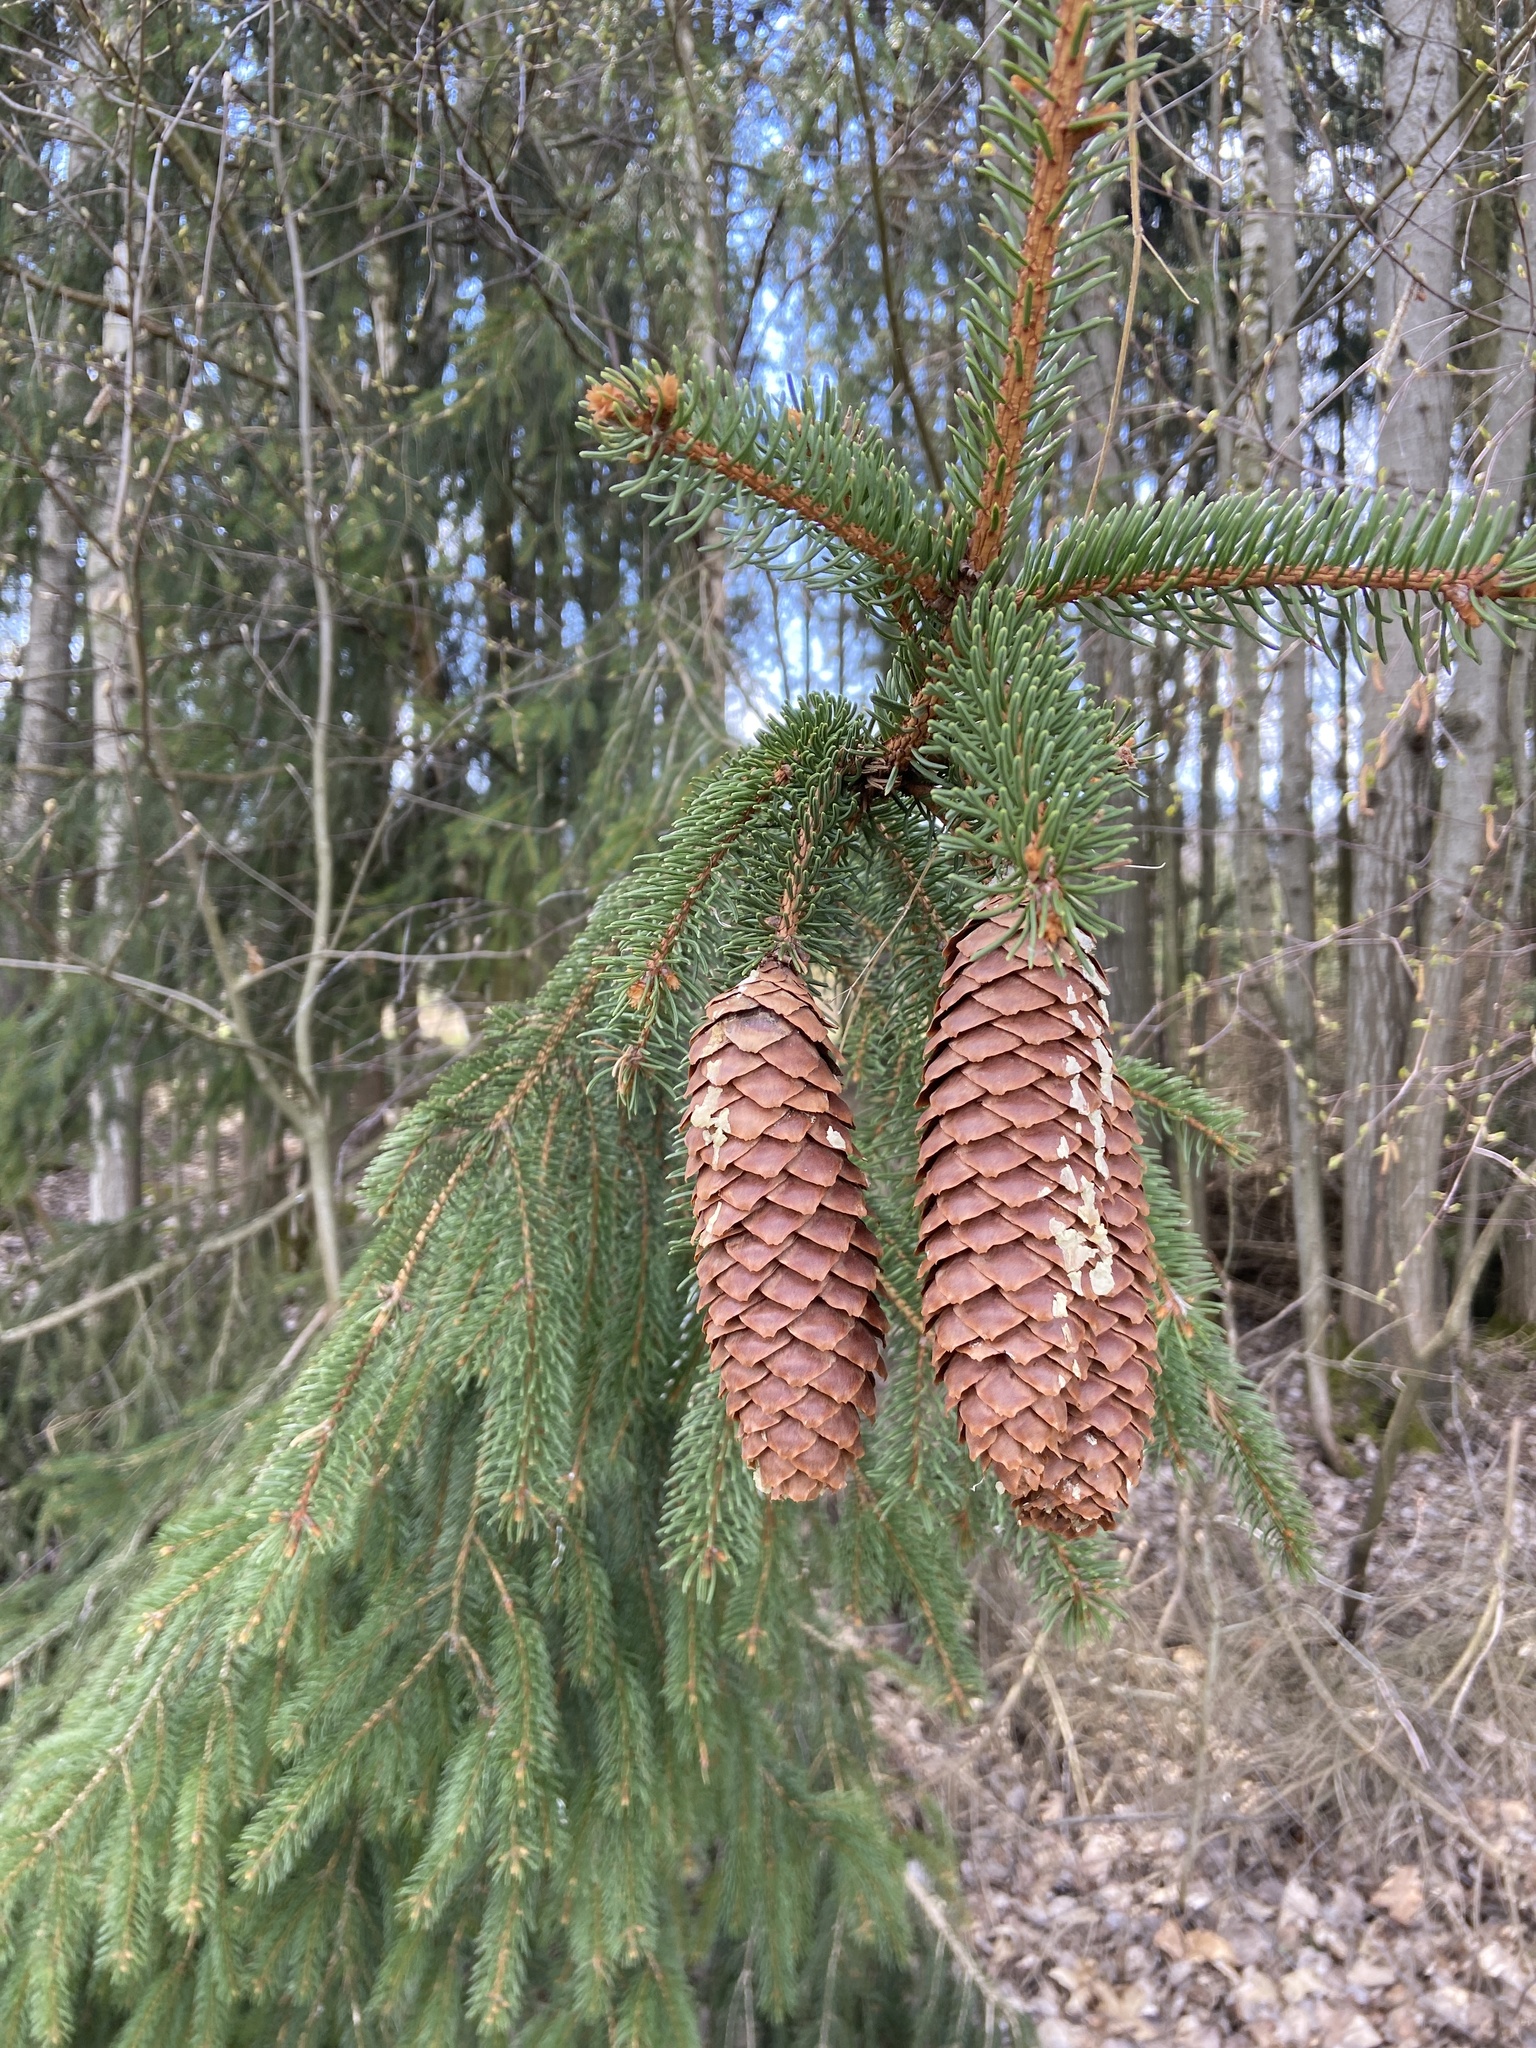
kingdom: Plantae
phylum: Tracheophyta
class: Pinopsida
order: Pinales
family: Pinaceae
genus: Picea
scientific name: Picea abies
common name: Norway spruce
